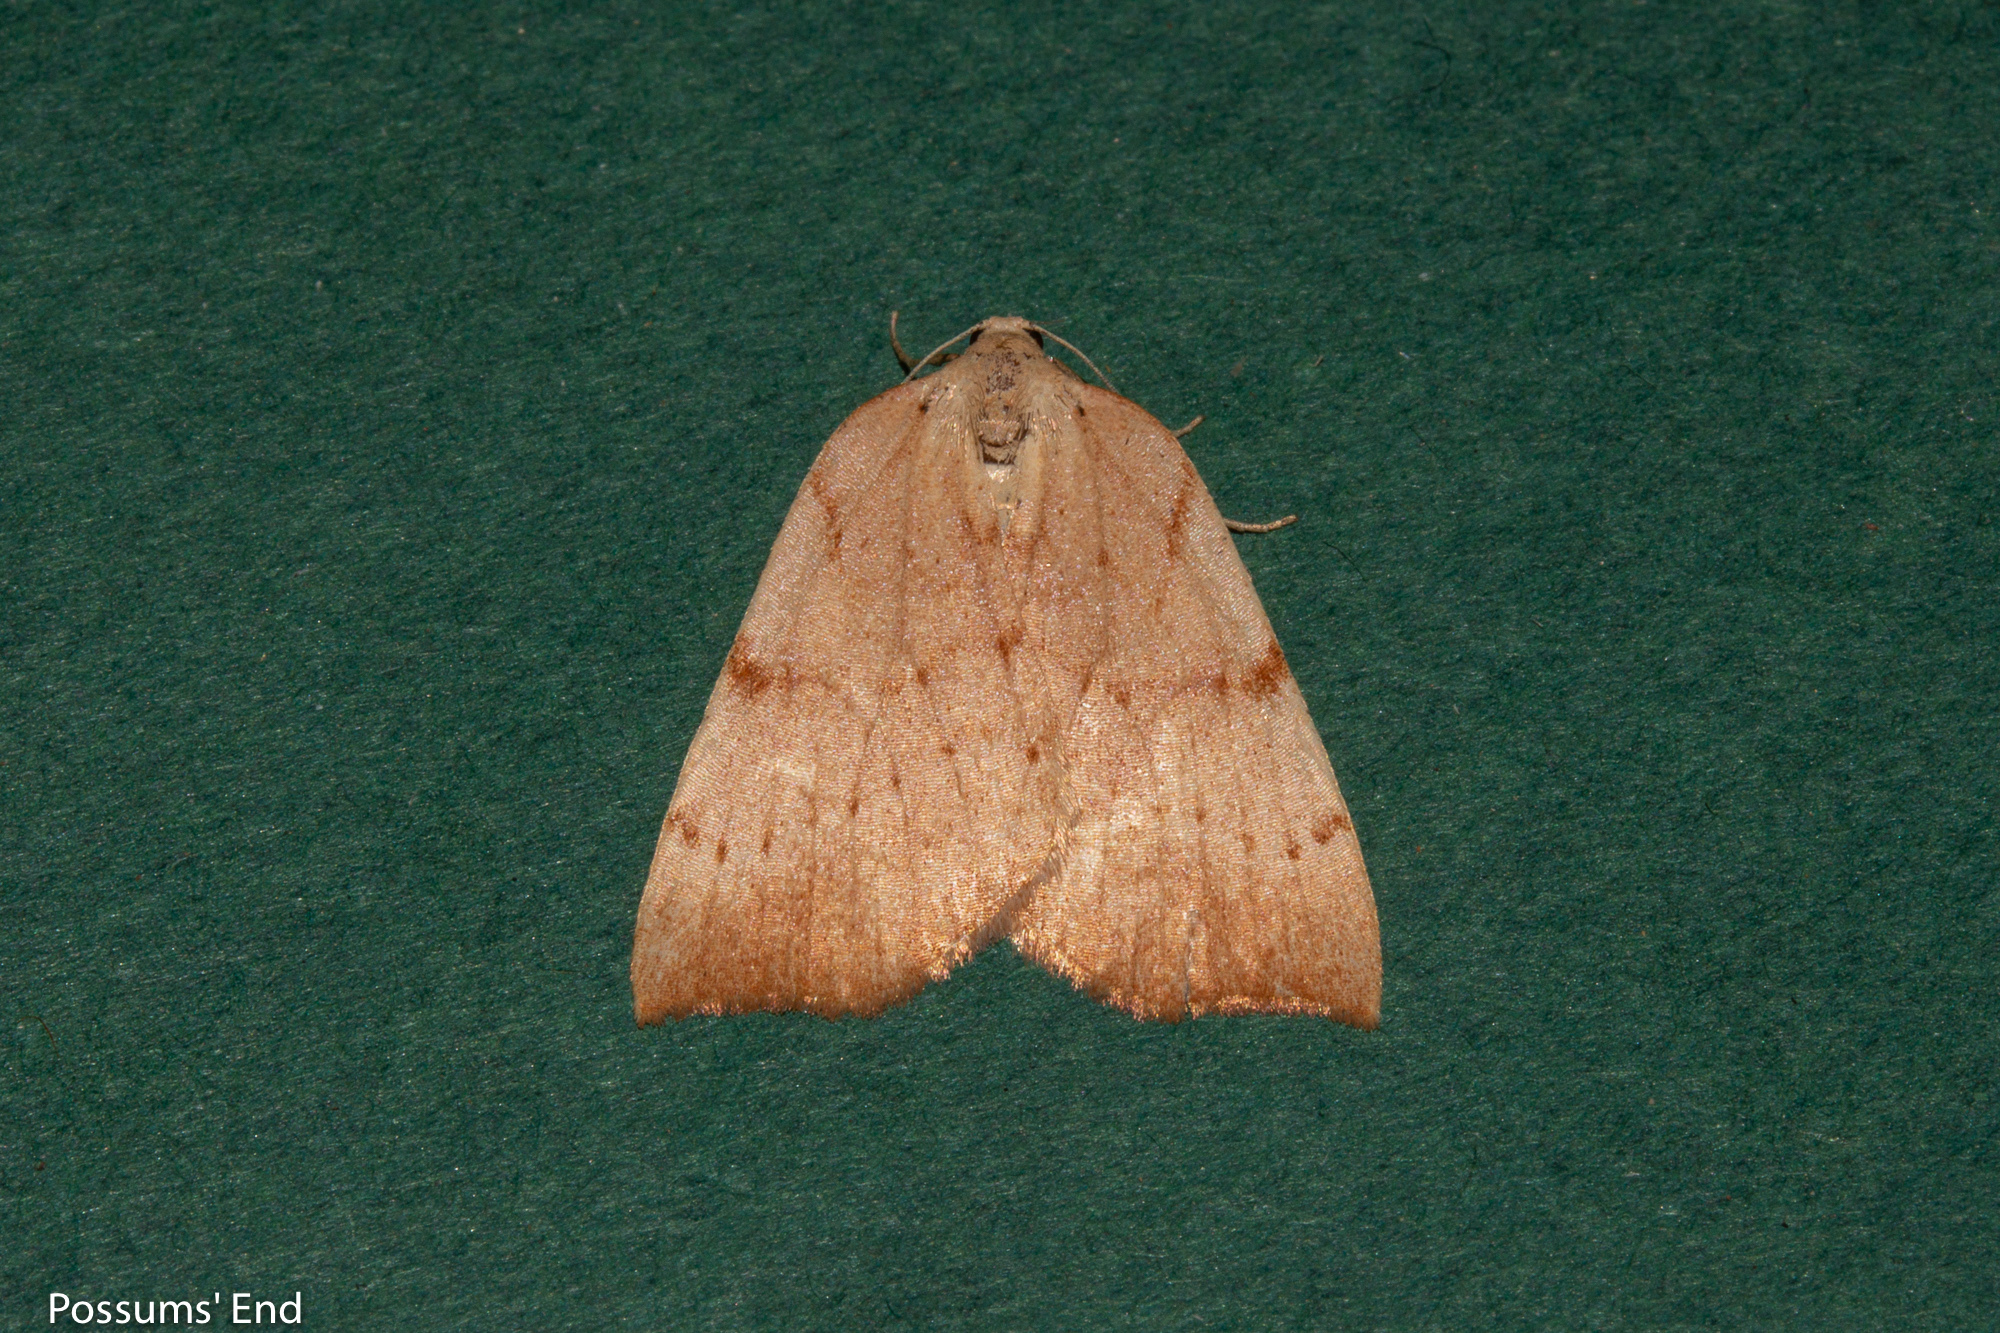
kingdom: Animalia
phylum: Arthropoda
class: Insecta
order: Lepidoptera
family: Geometridae
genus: Sestra
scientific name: Sestra humeraria
